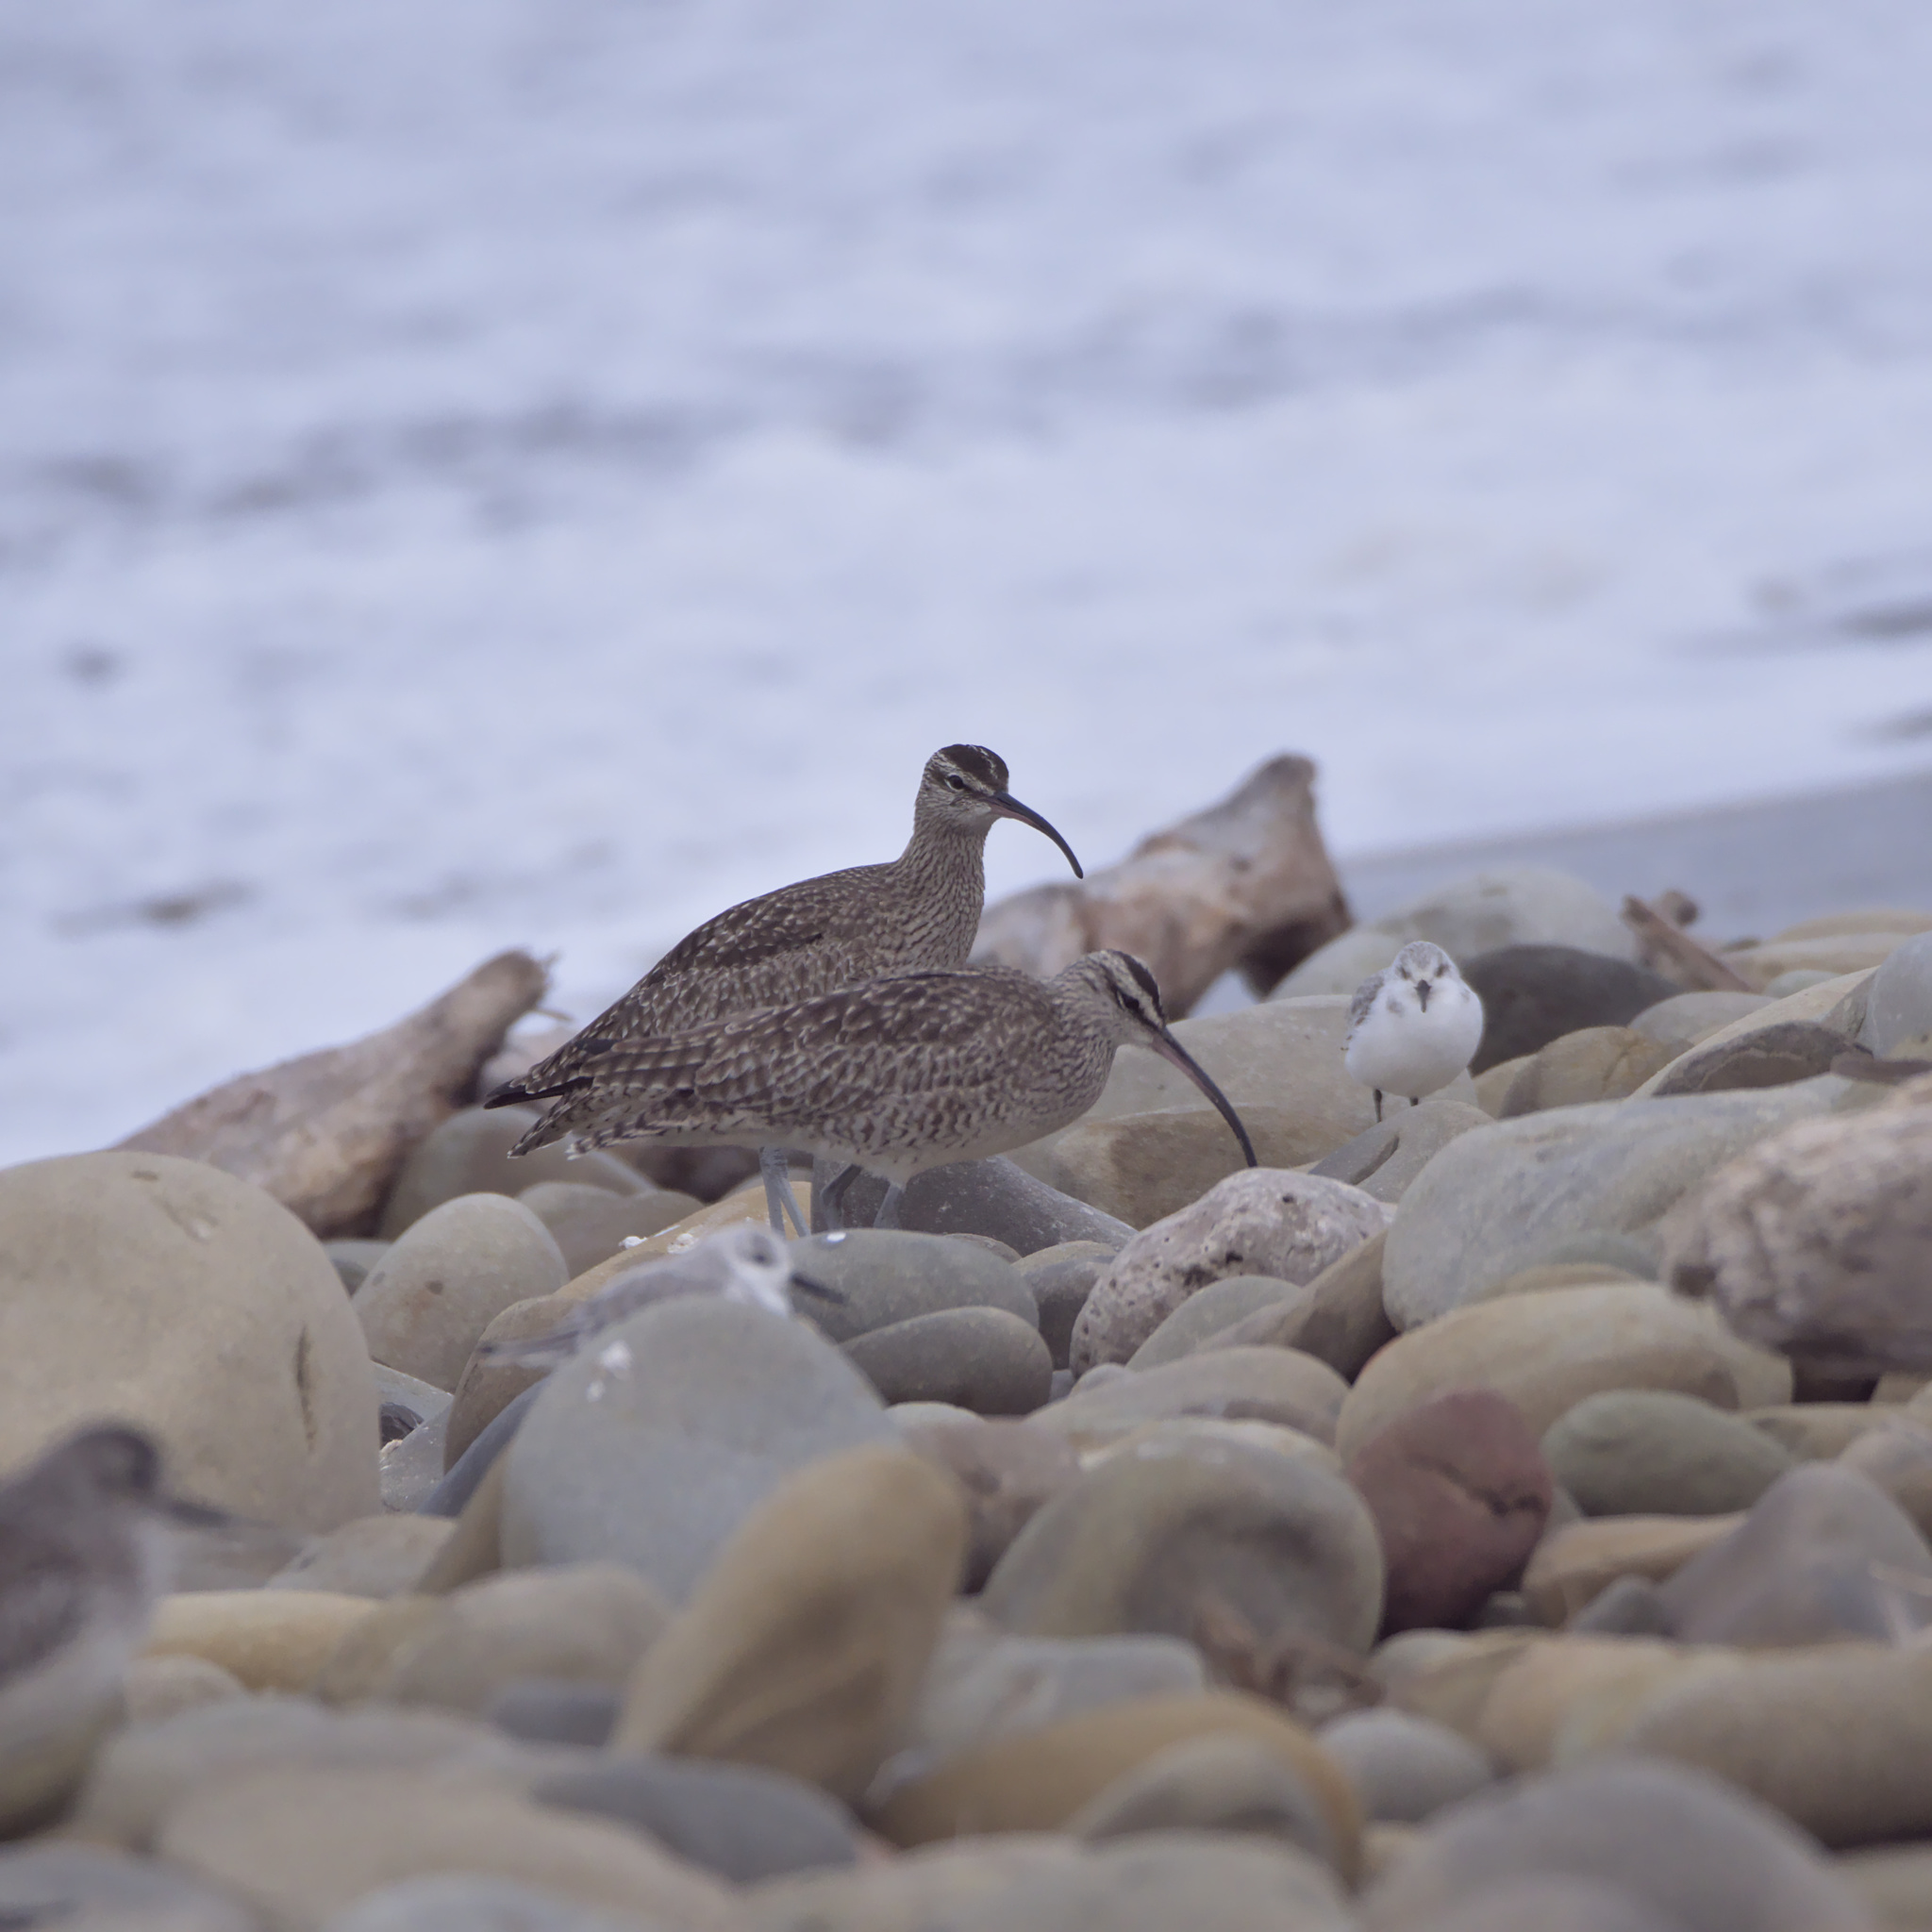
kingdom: Animalia
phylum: Chordata
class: Aves
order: Charadriiformes
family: Scolopacidae
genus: Numenius
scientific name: Numenius phaeopus
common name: Whimbrel
